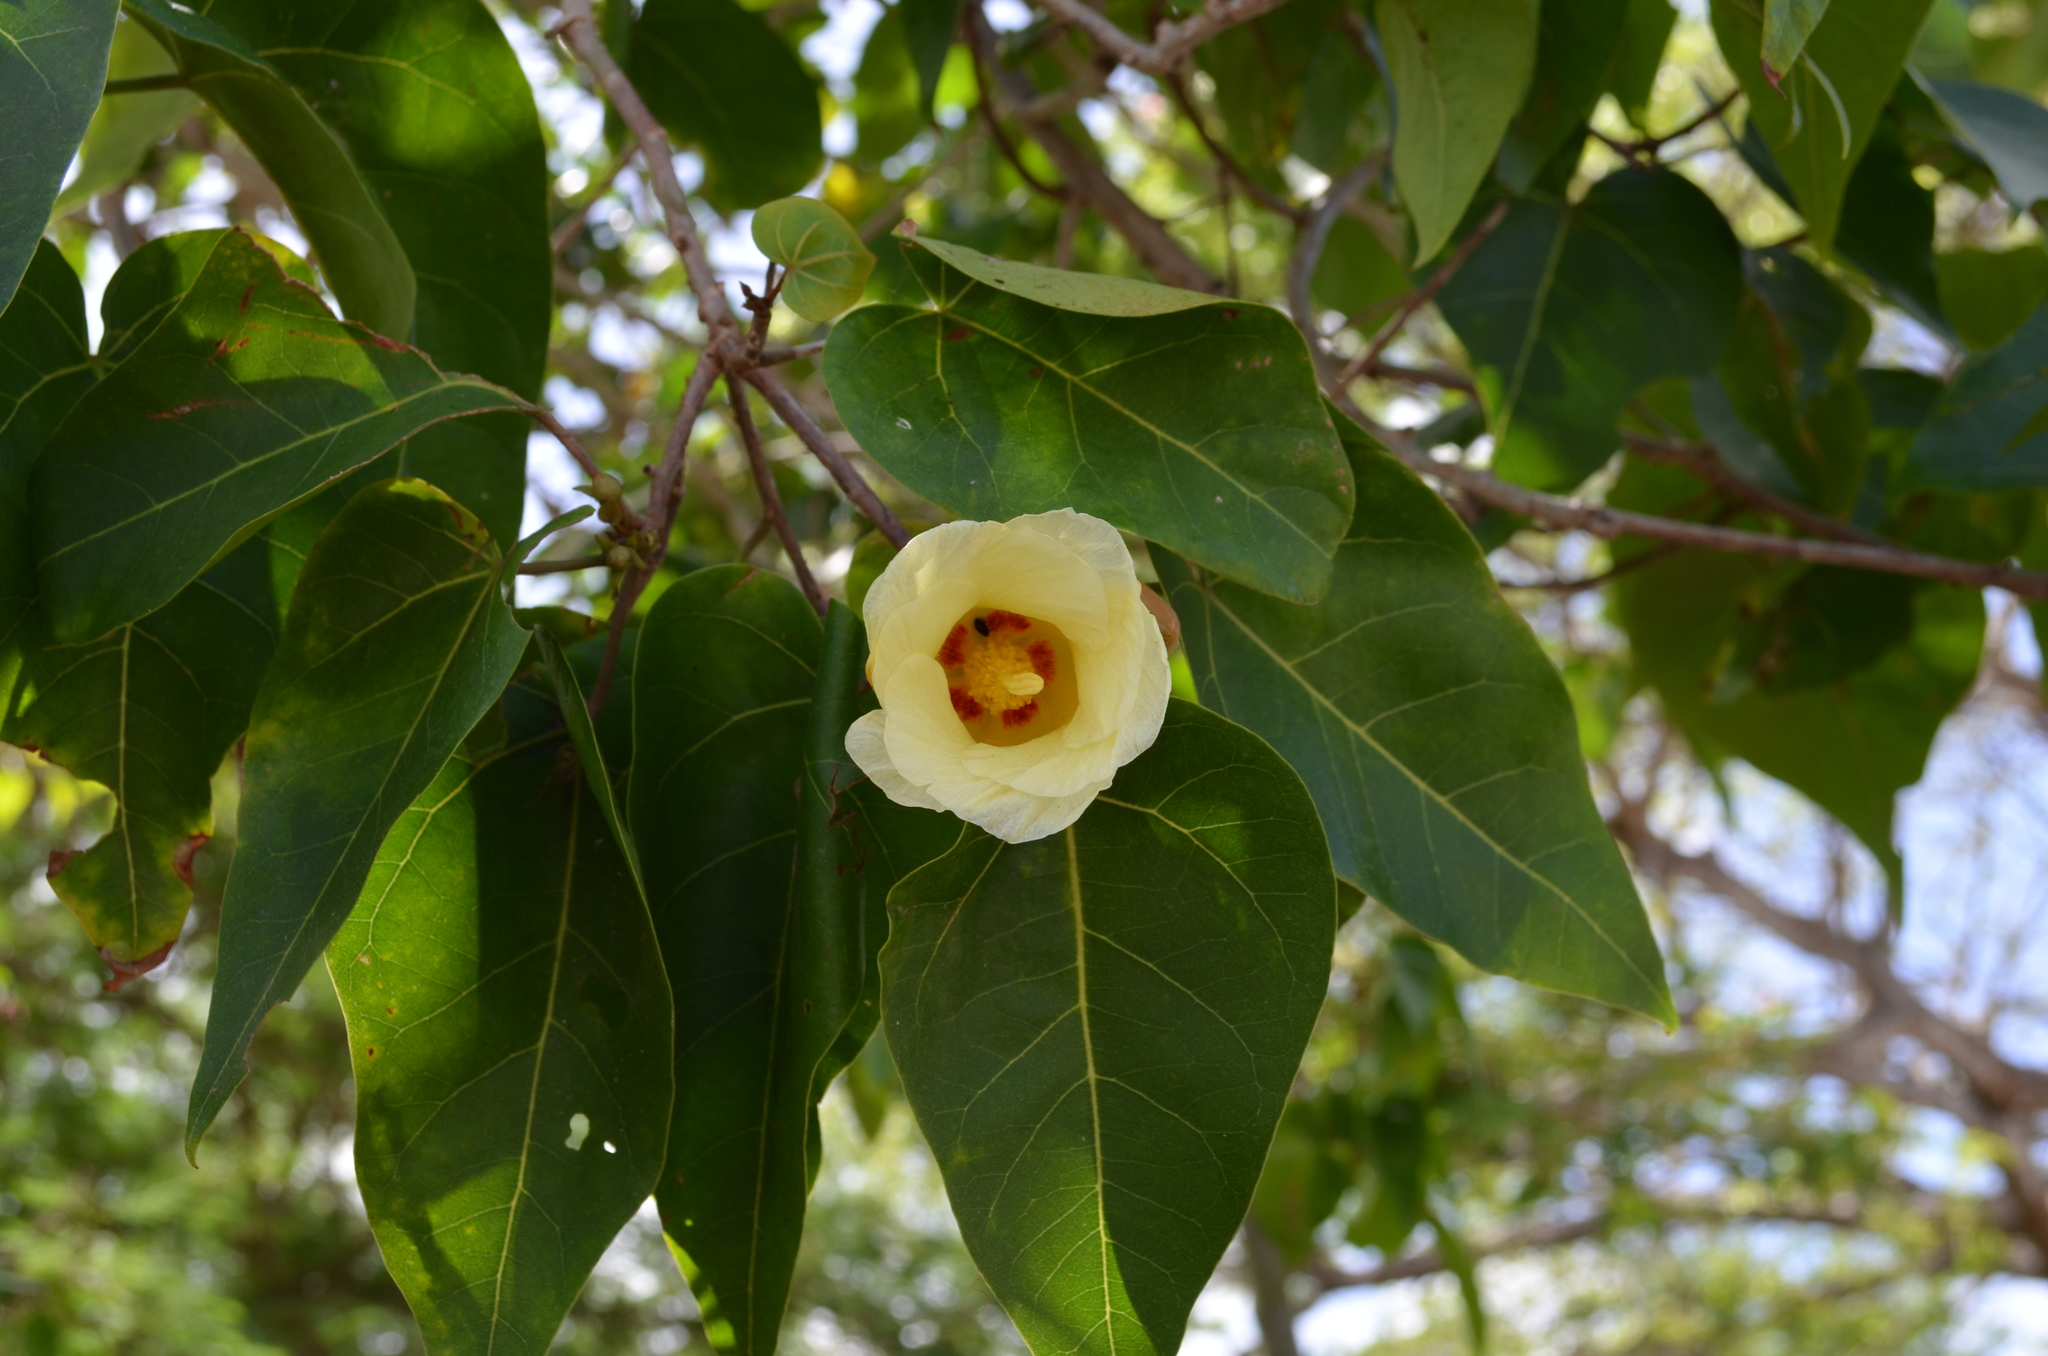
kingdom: Plantae
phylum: Tracheophyta
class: Magnoliopsida
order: Malvales
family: Malvaceae
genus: Thespesia
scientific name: Thespesia populnea
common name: Seaside mahoe
